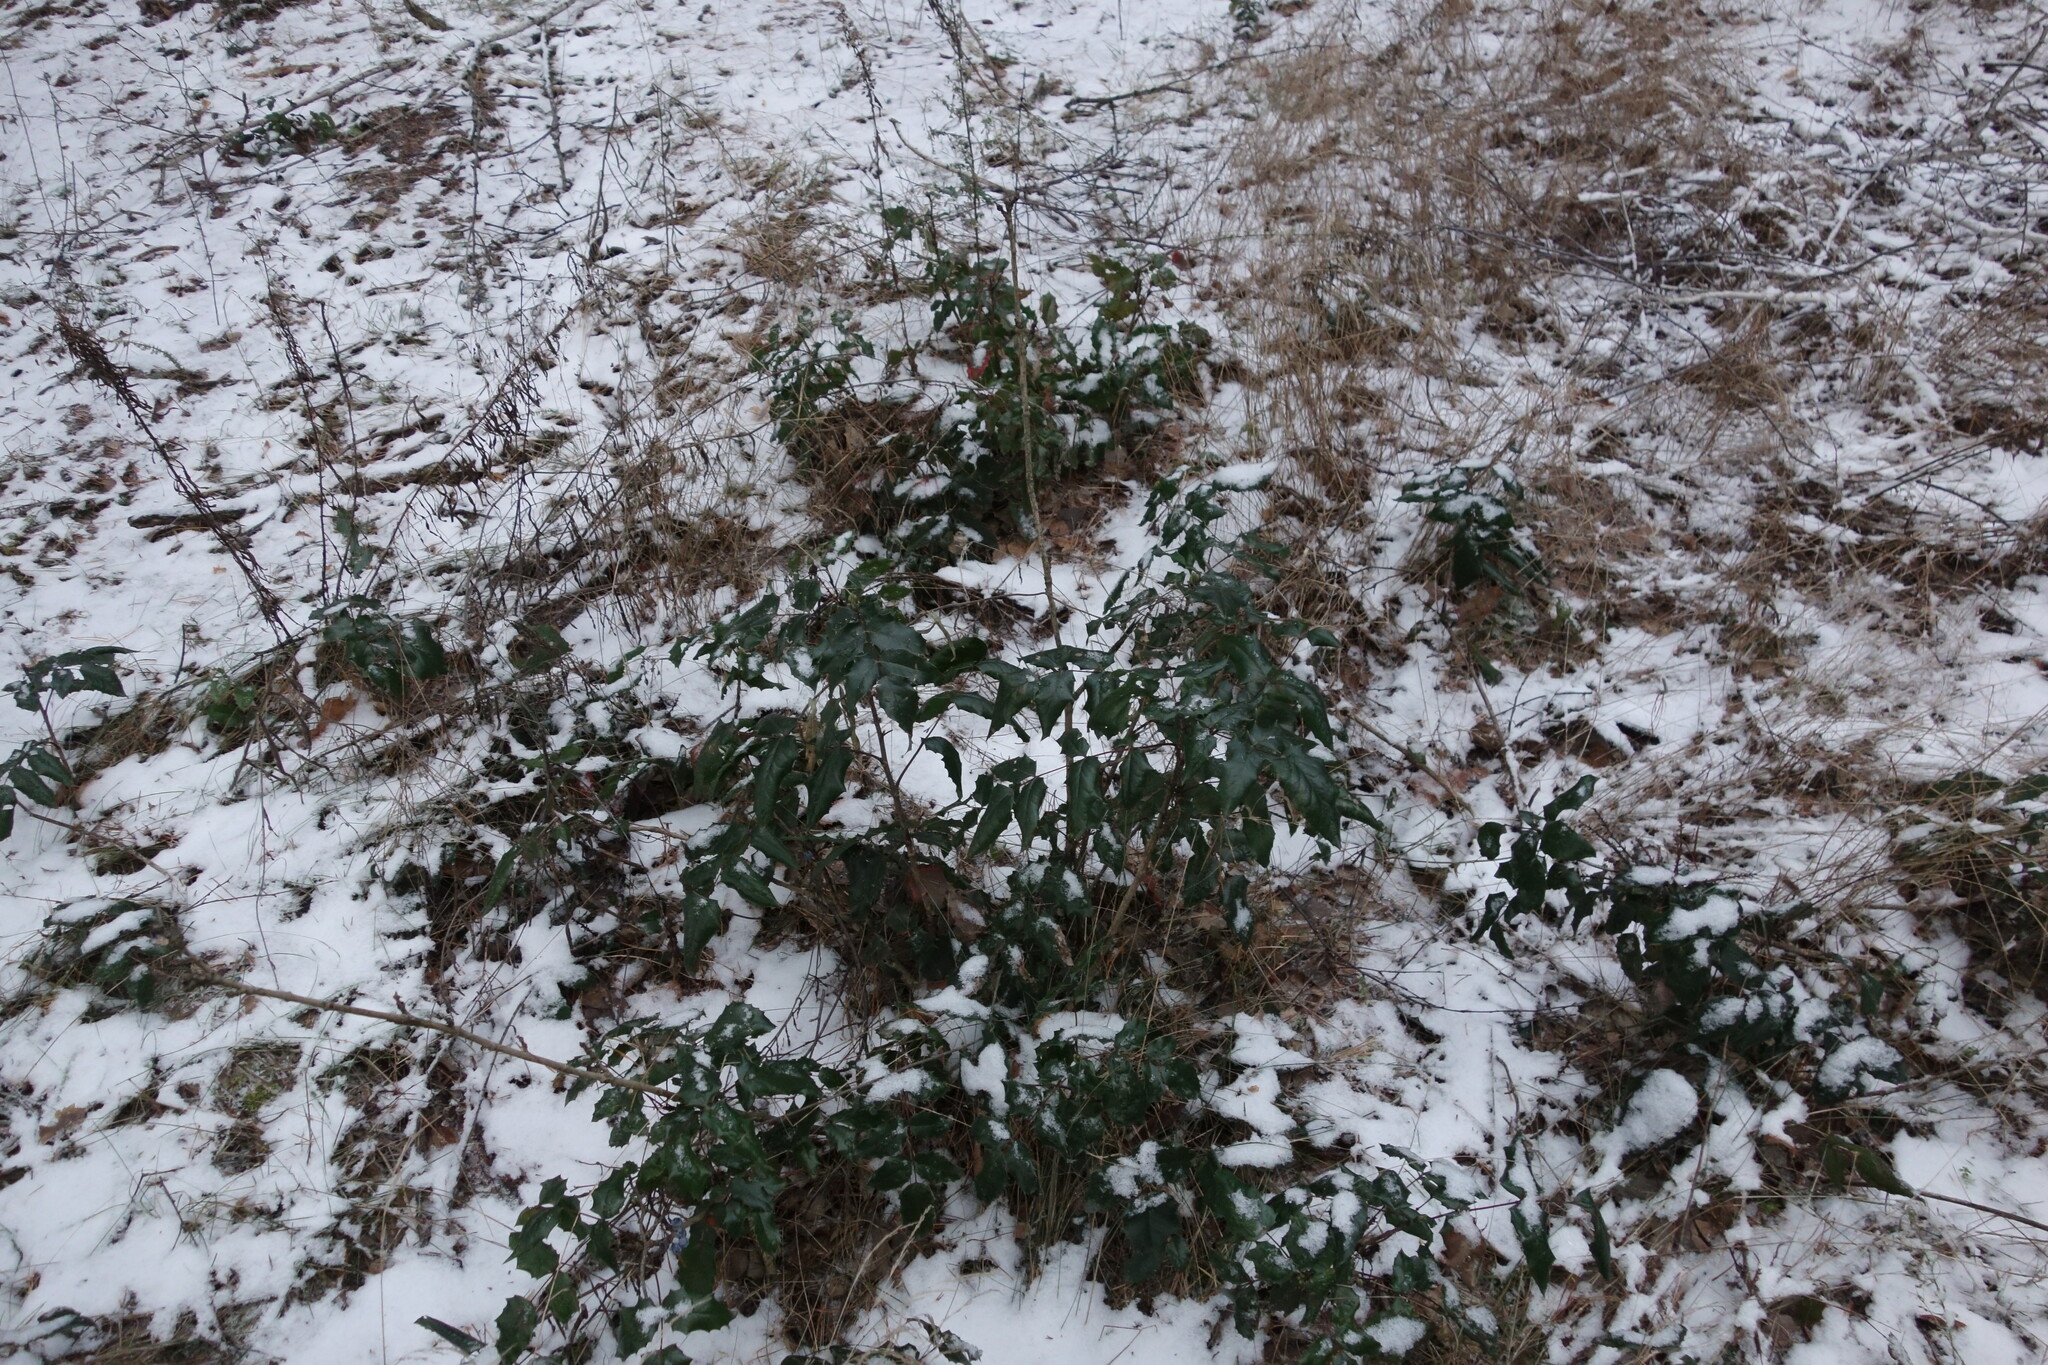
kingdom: Plantae
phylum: Tracheophyta
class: Magnoliopsida
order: Ranunculales
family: Berberidaceae
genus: Mahonia
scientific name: Mahonia aquifolium
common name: Oregon-grape
